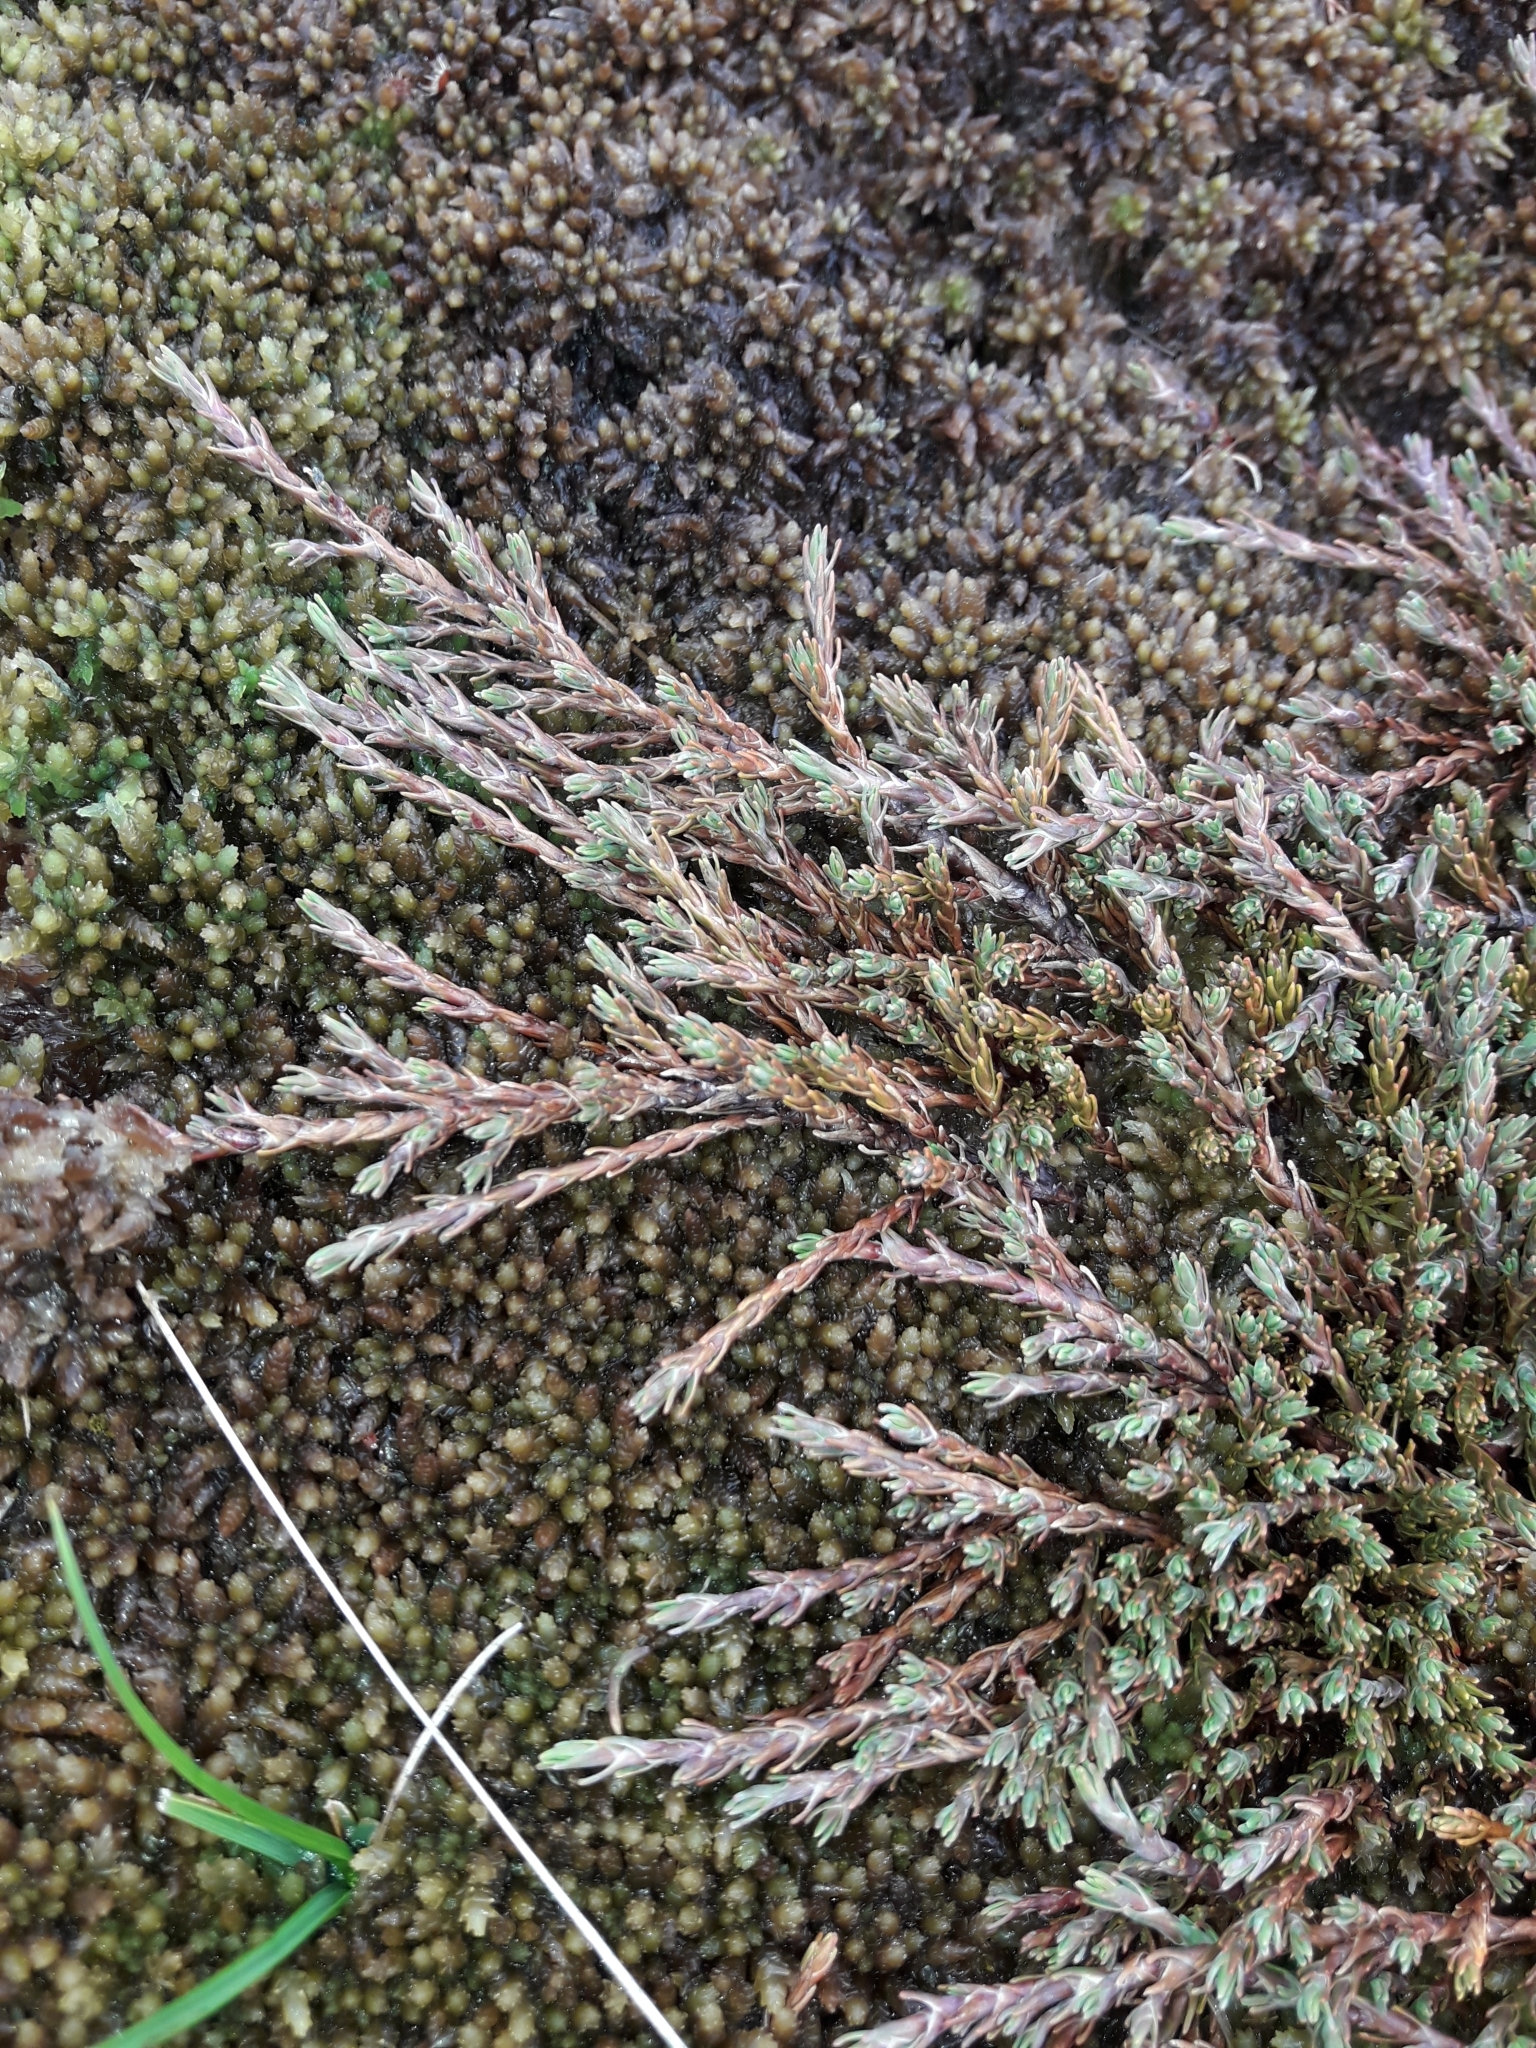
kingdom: Plantae
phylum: Tracheophyta
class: Magnoliopsida
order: Ericales
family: Ericaceae
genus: Dracophyllum
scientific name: Dracophyllum prostratum
